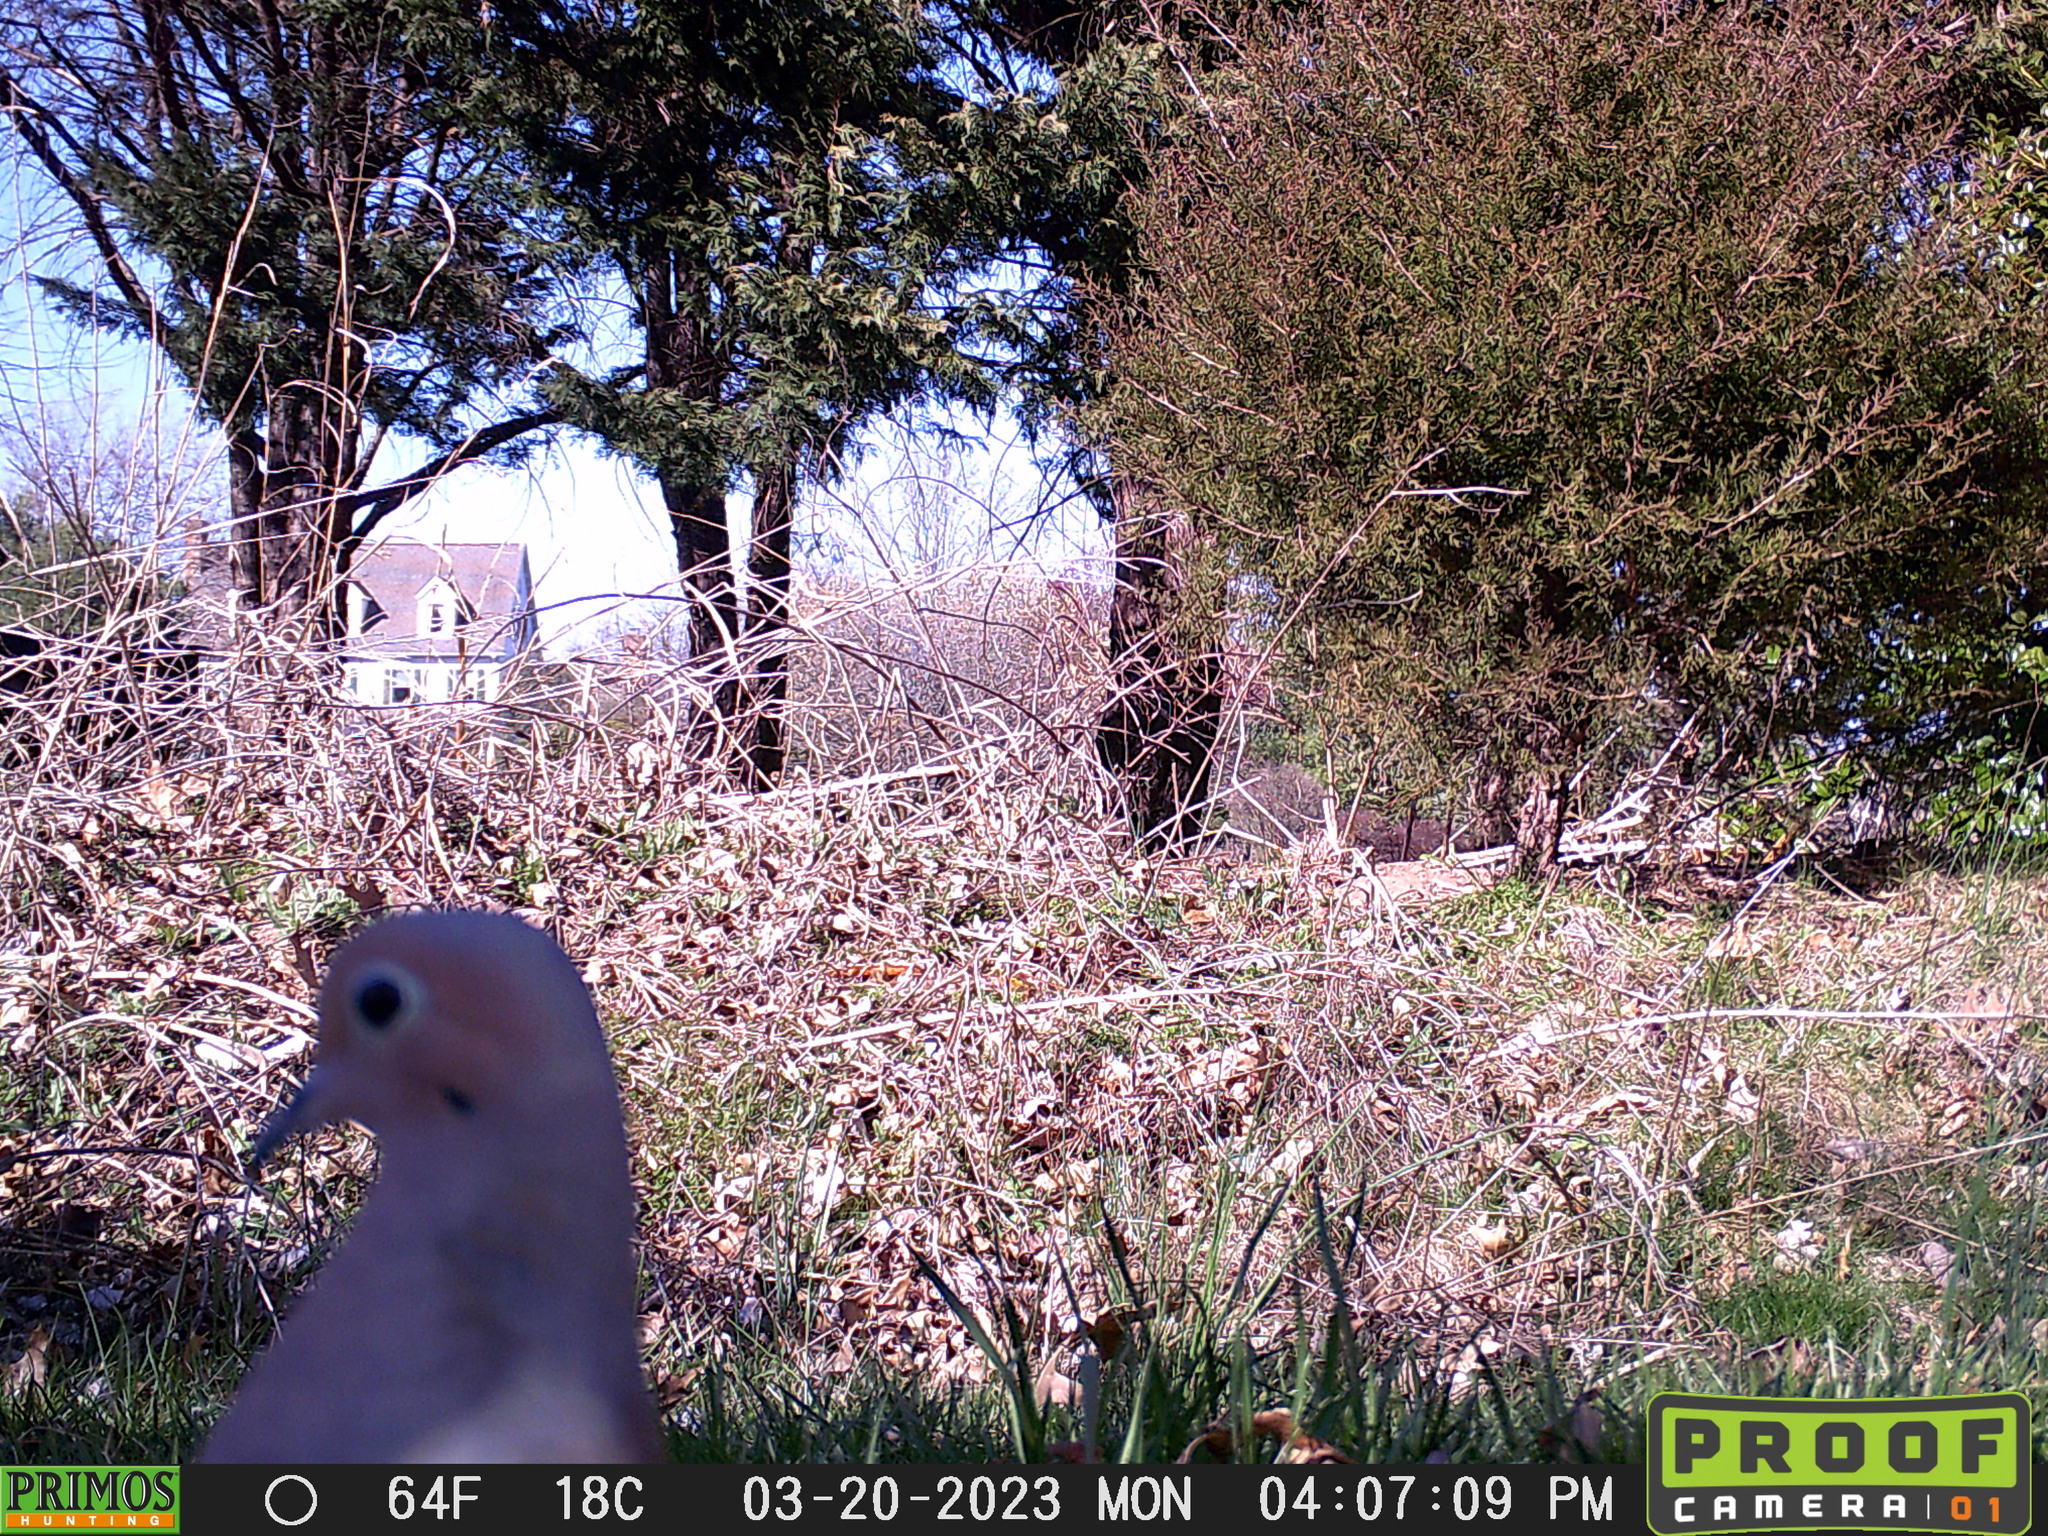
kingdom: Animalia
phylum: Chordata
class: Aves
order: Columbiformes
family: Columbidae
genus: Zenaida
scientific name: Zenaida macroura
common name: Mourning dove
